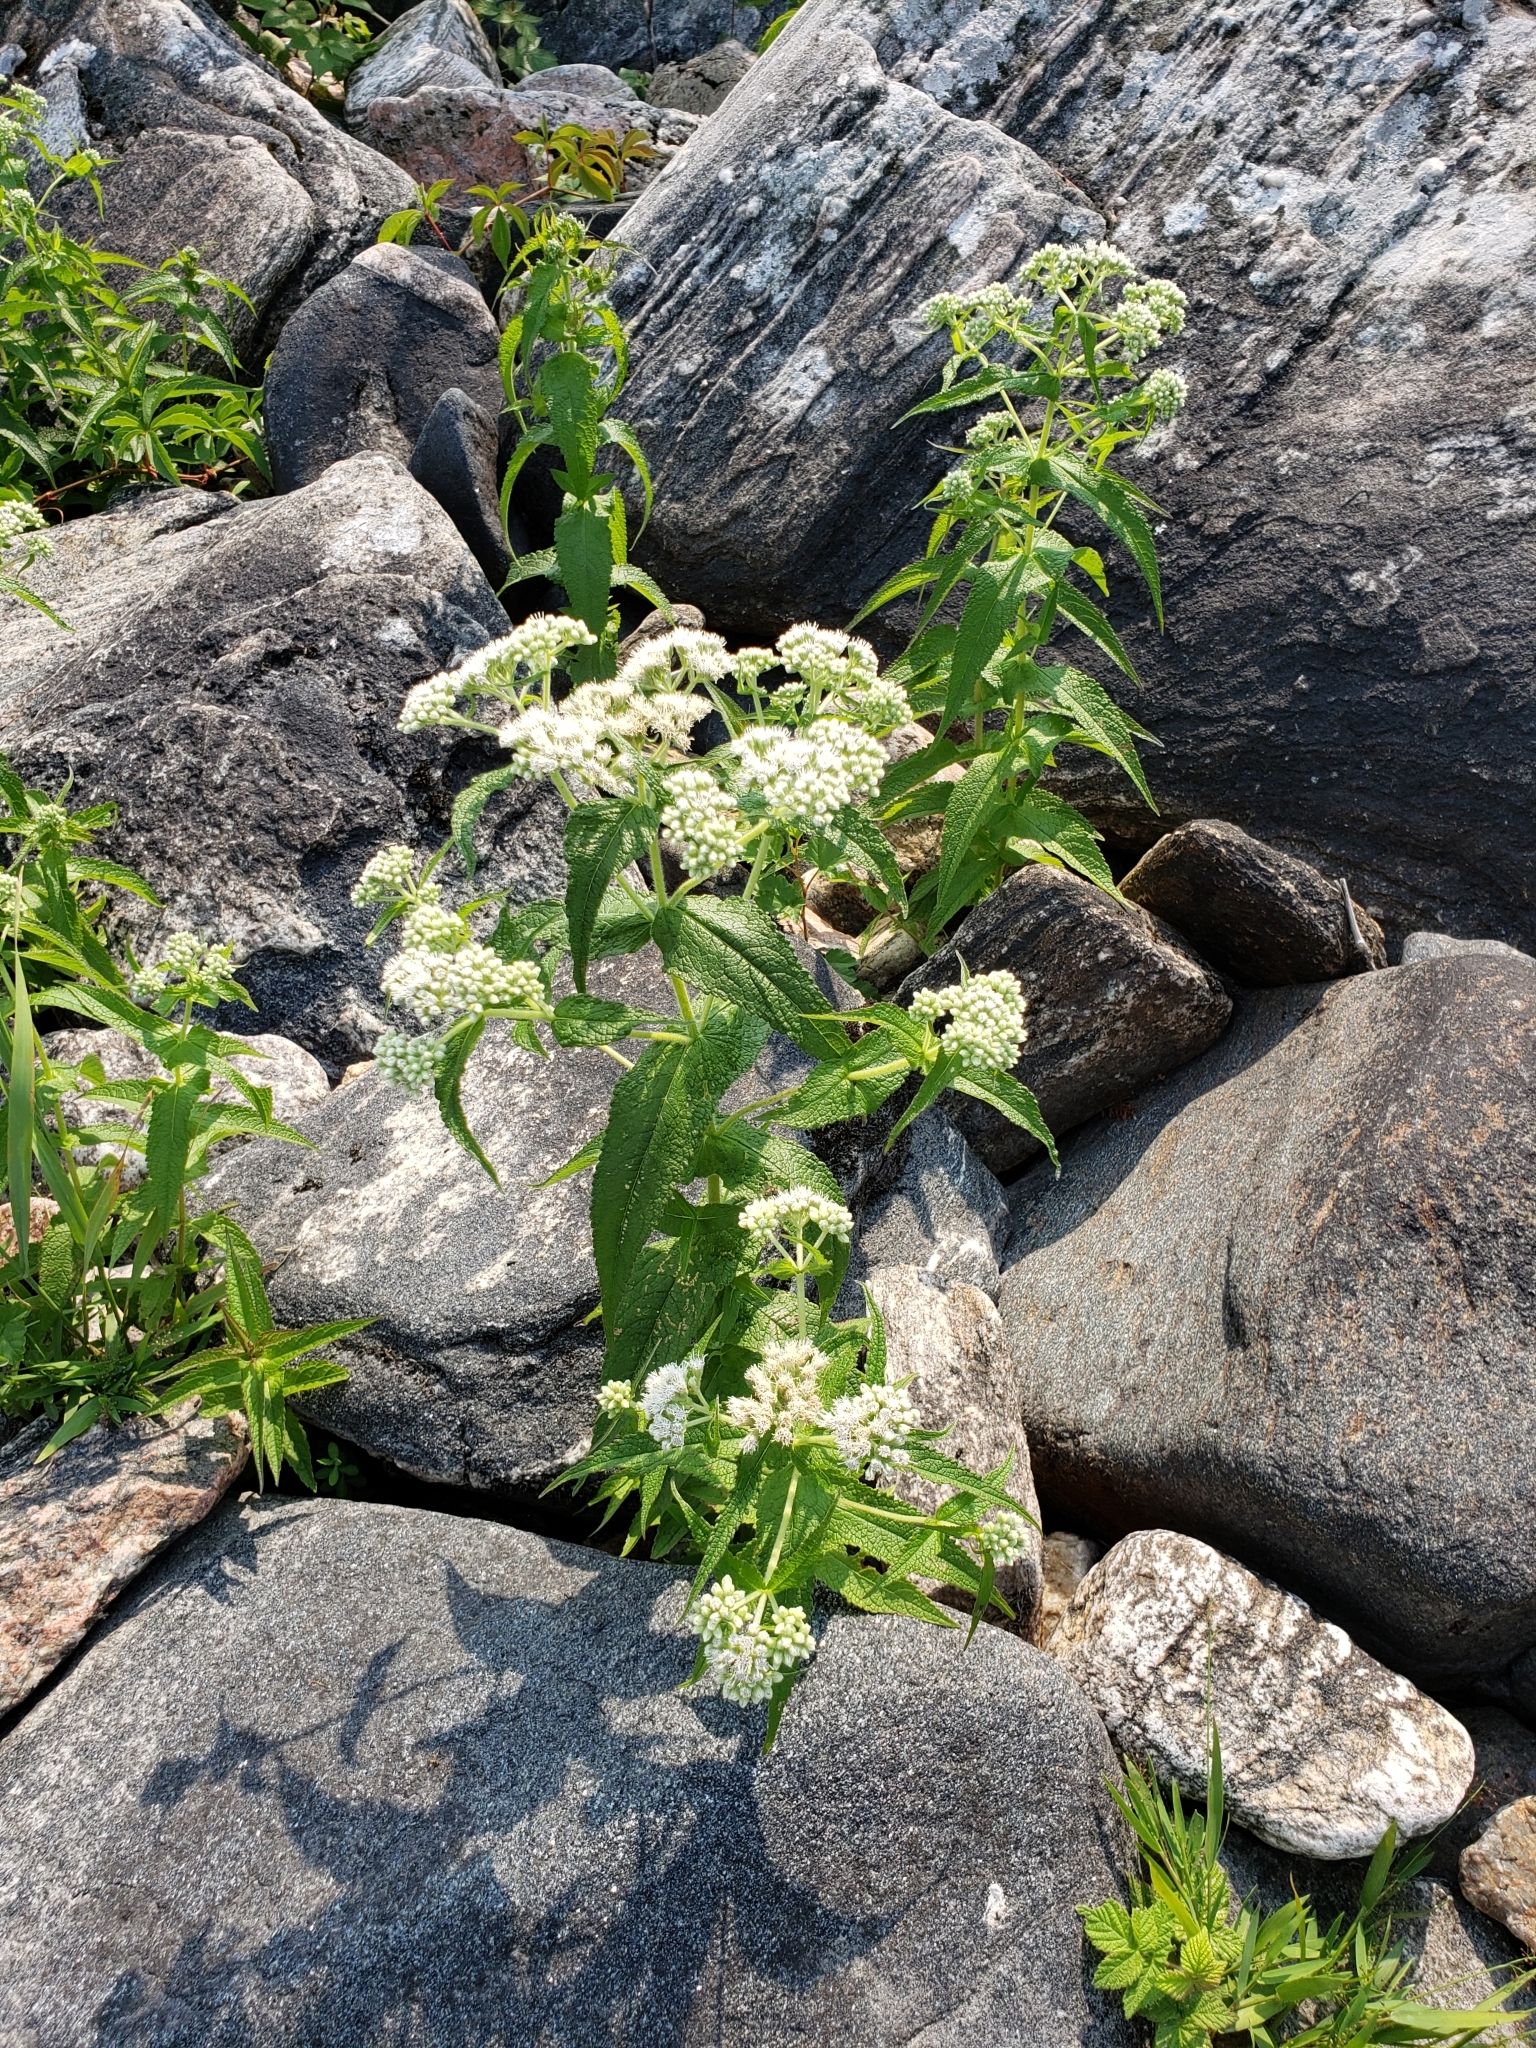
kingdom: Plantae
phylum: Tracheophyta
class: Magnoliopsida
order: Asterales
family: Asteraceae
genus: Eupatorium
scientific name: Eupatorium perfoliatum
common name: Boneset
